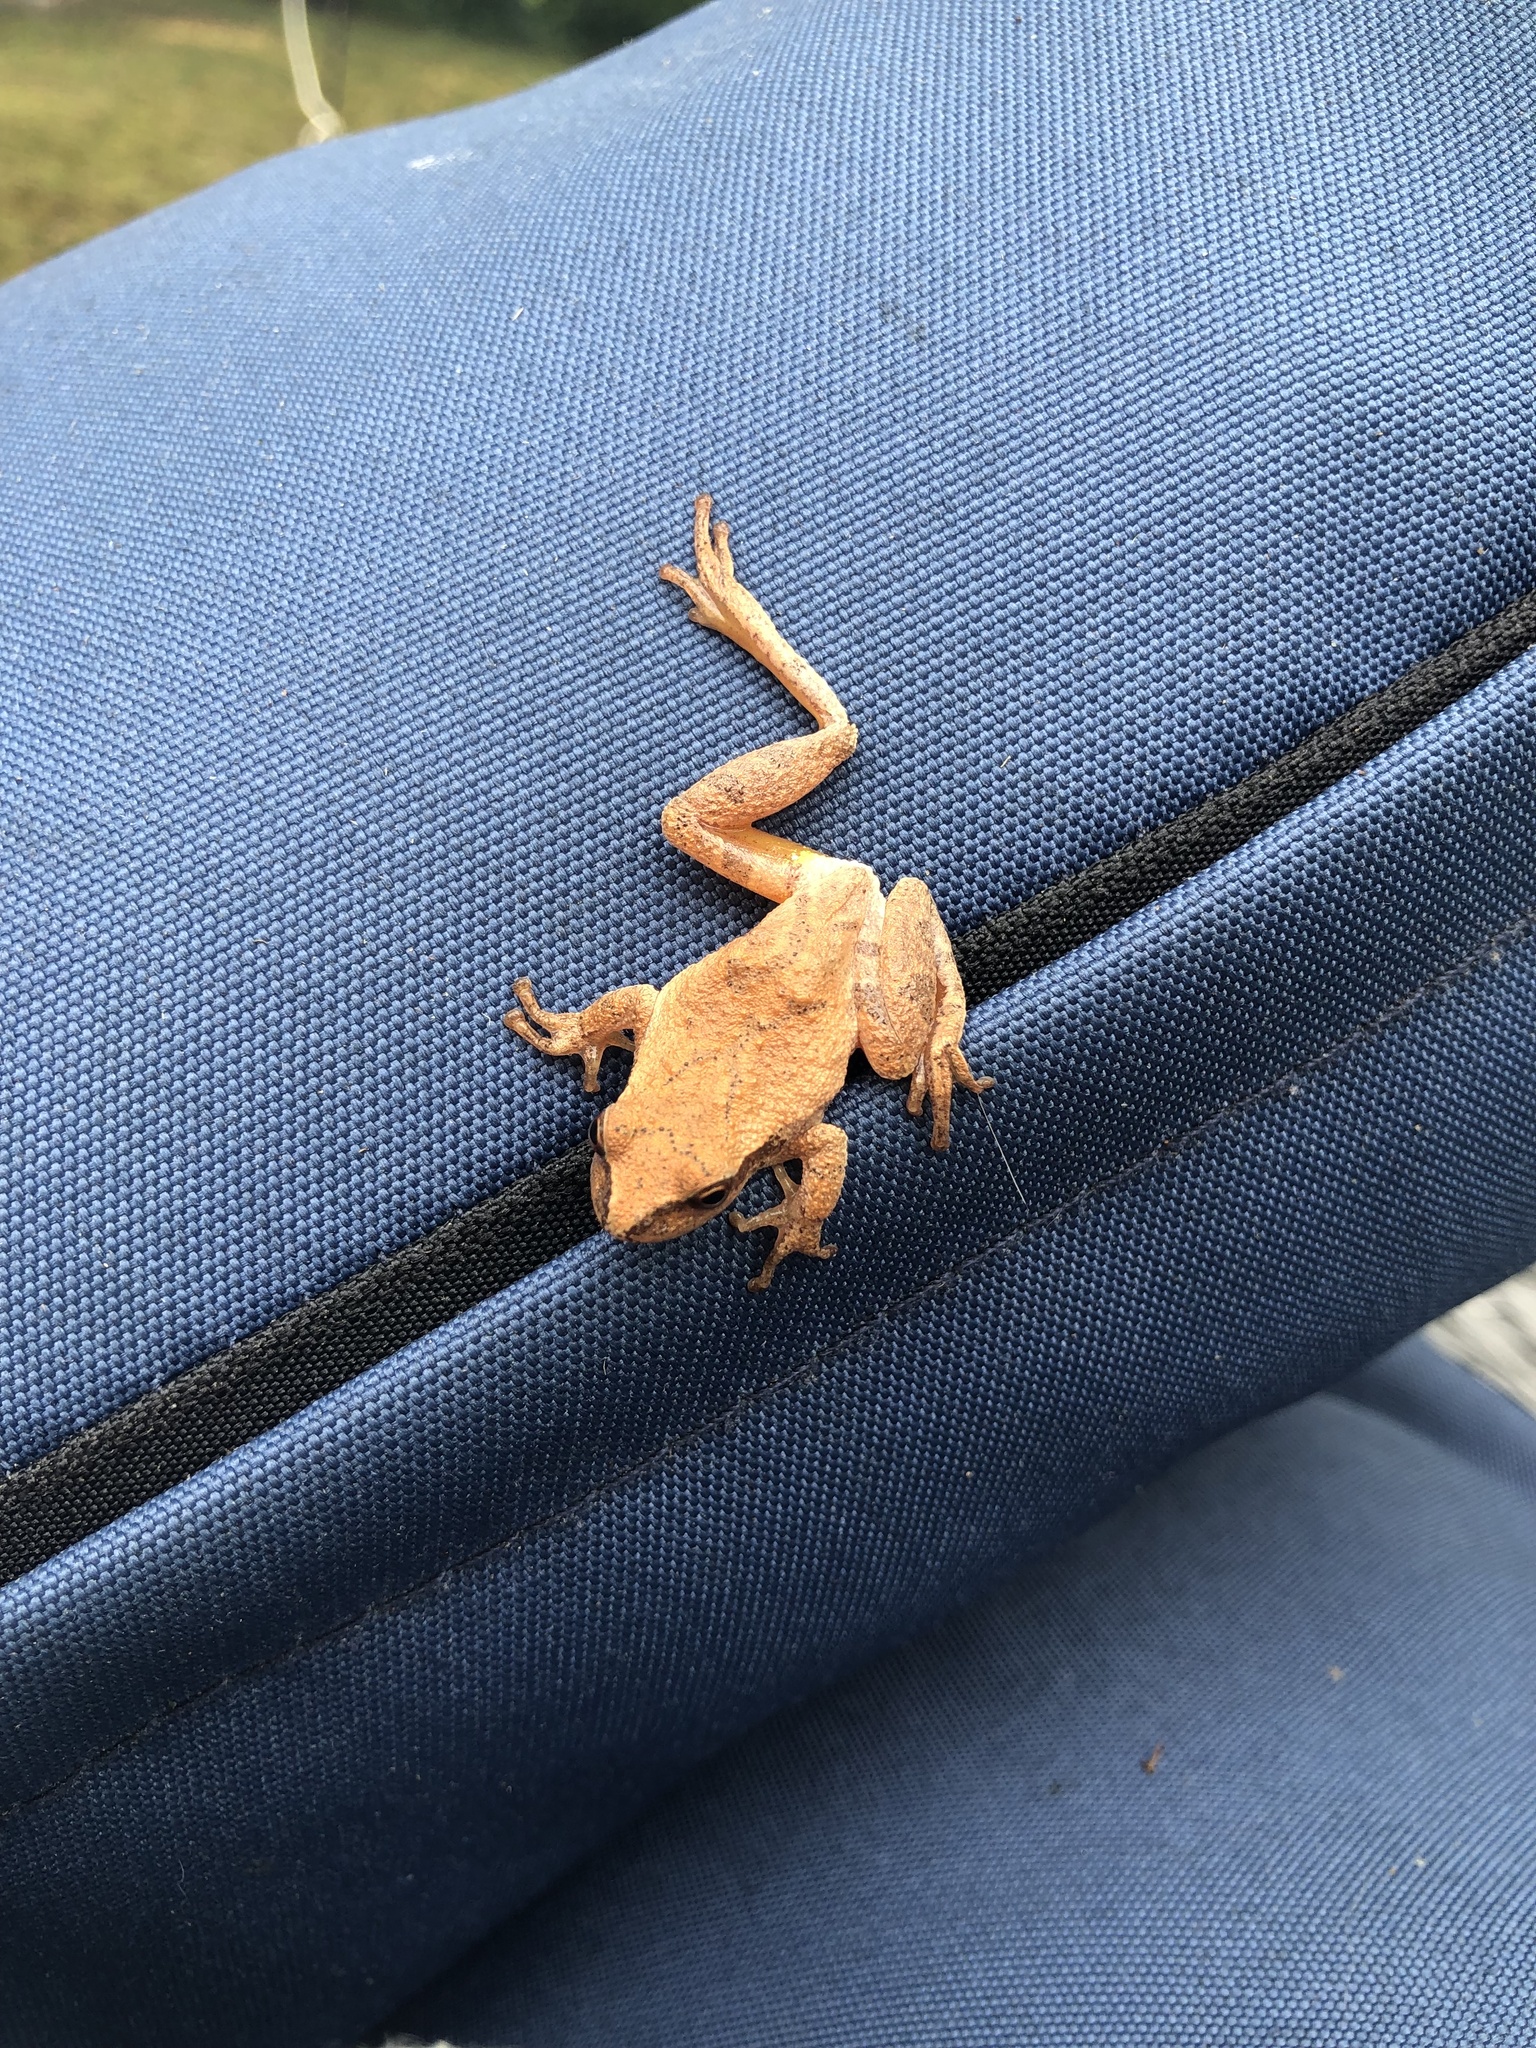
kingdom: Animalia
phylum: Chordata
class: Amphibia
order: Anura
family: Hylidae
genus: Pseudacris
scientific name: Pseudacris crucifer
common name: Spring peeper
